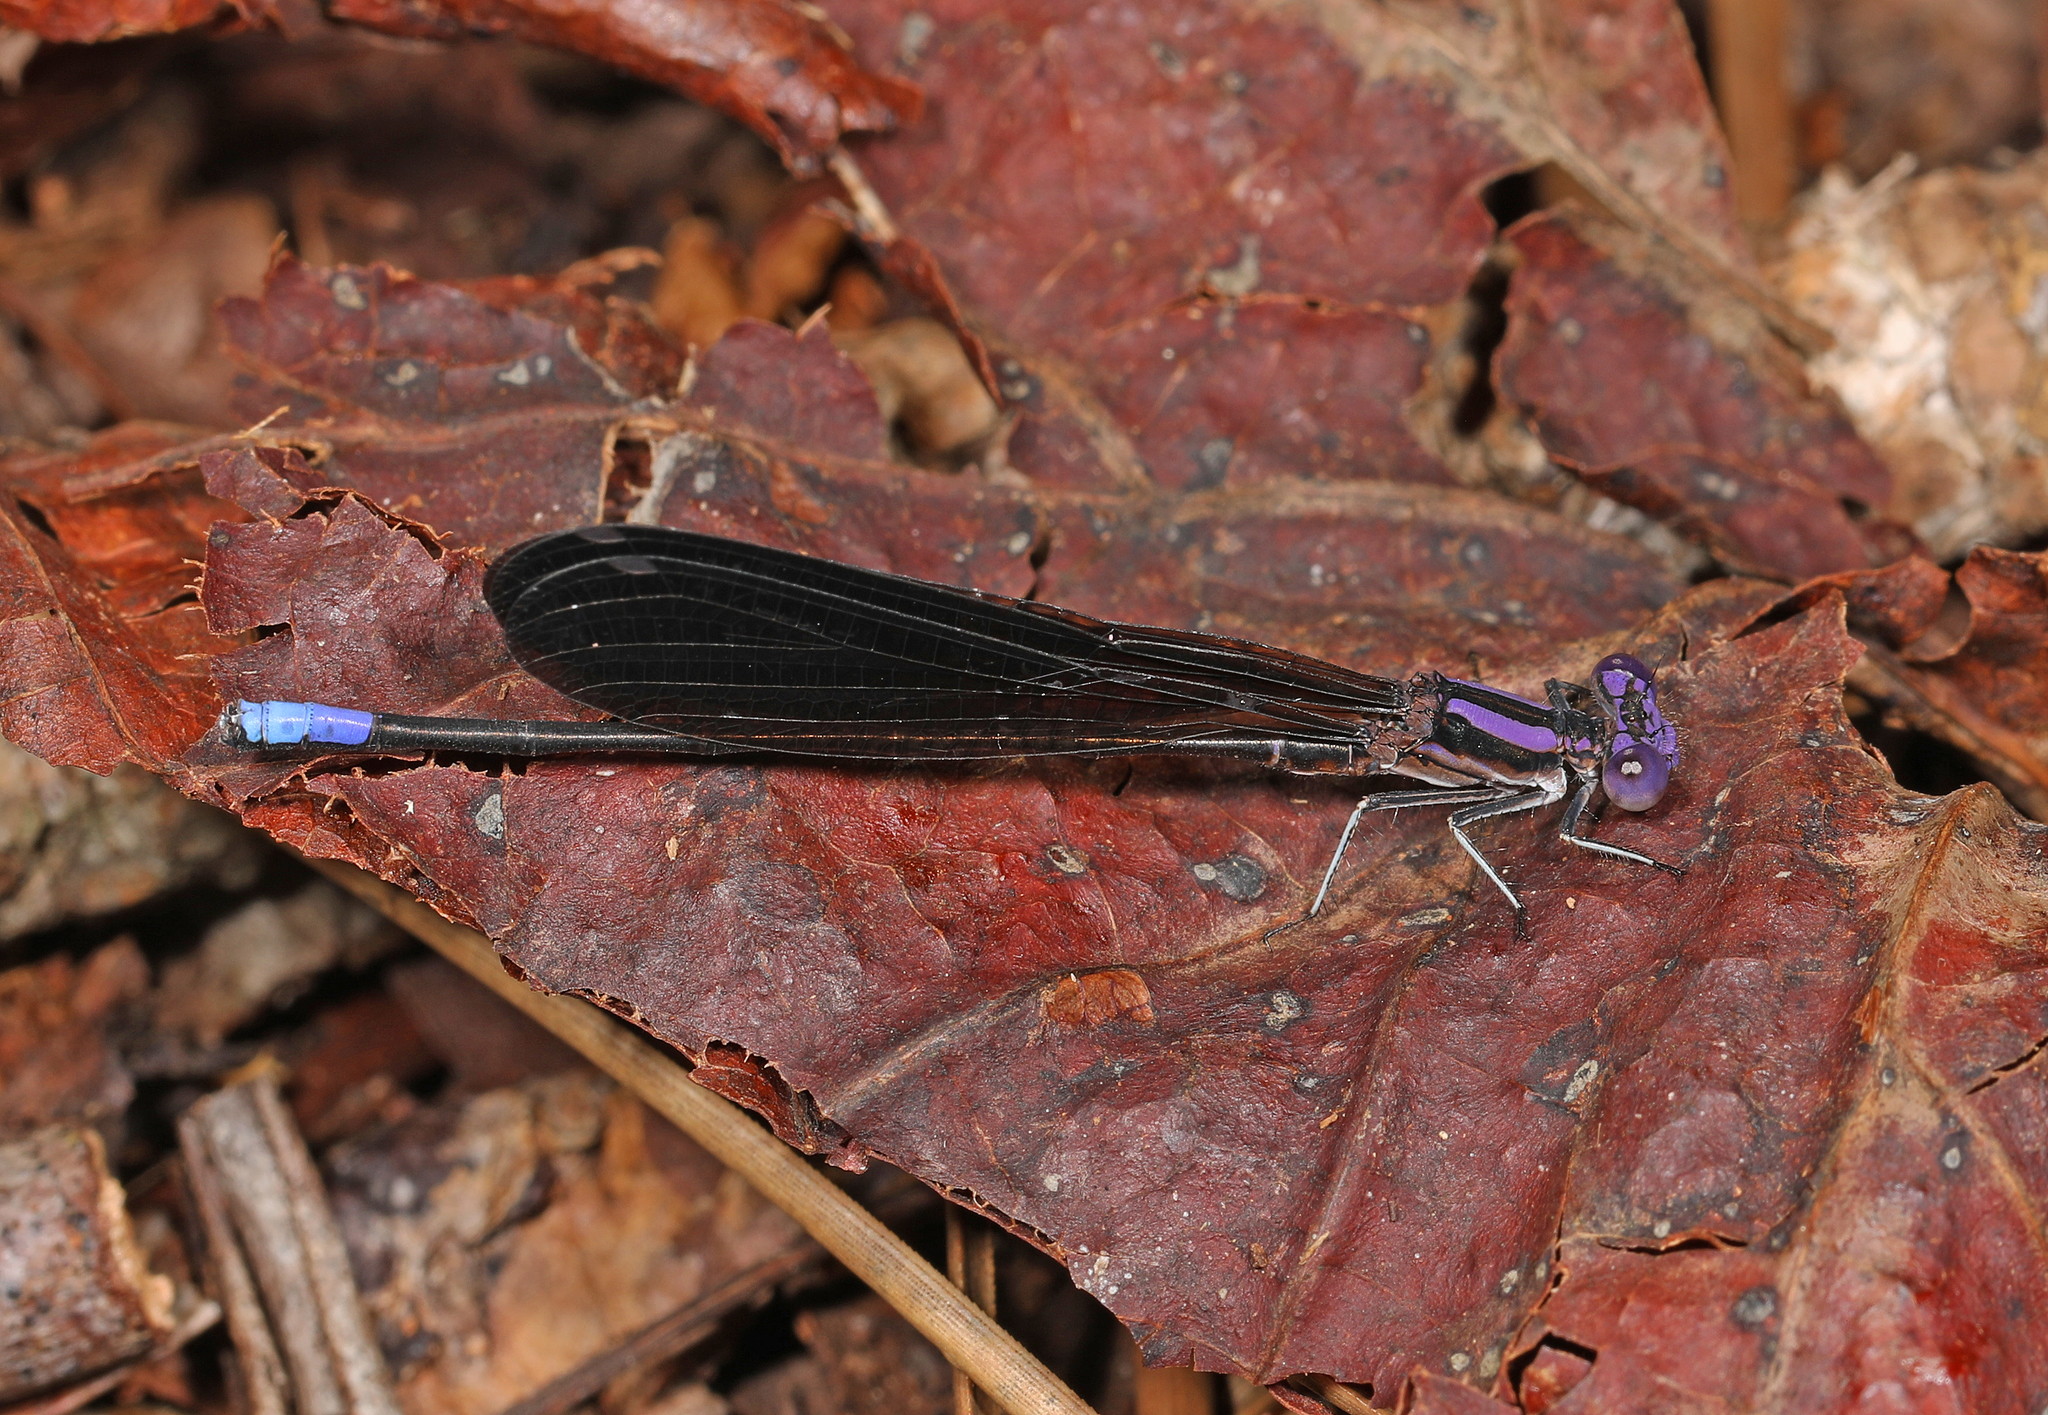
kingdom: Animalia
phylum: Arthropoda
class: Insecta
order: Odonata
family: Coenagrionidae
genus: Argia
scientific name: Argia fumipennis
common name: Variable dancer
